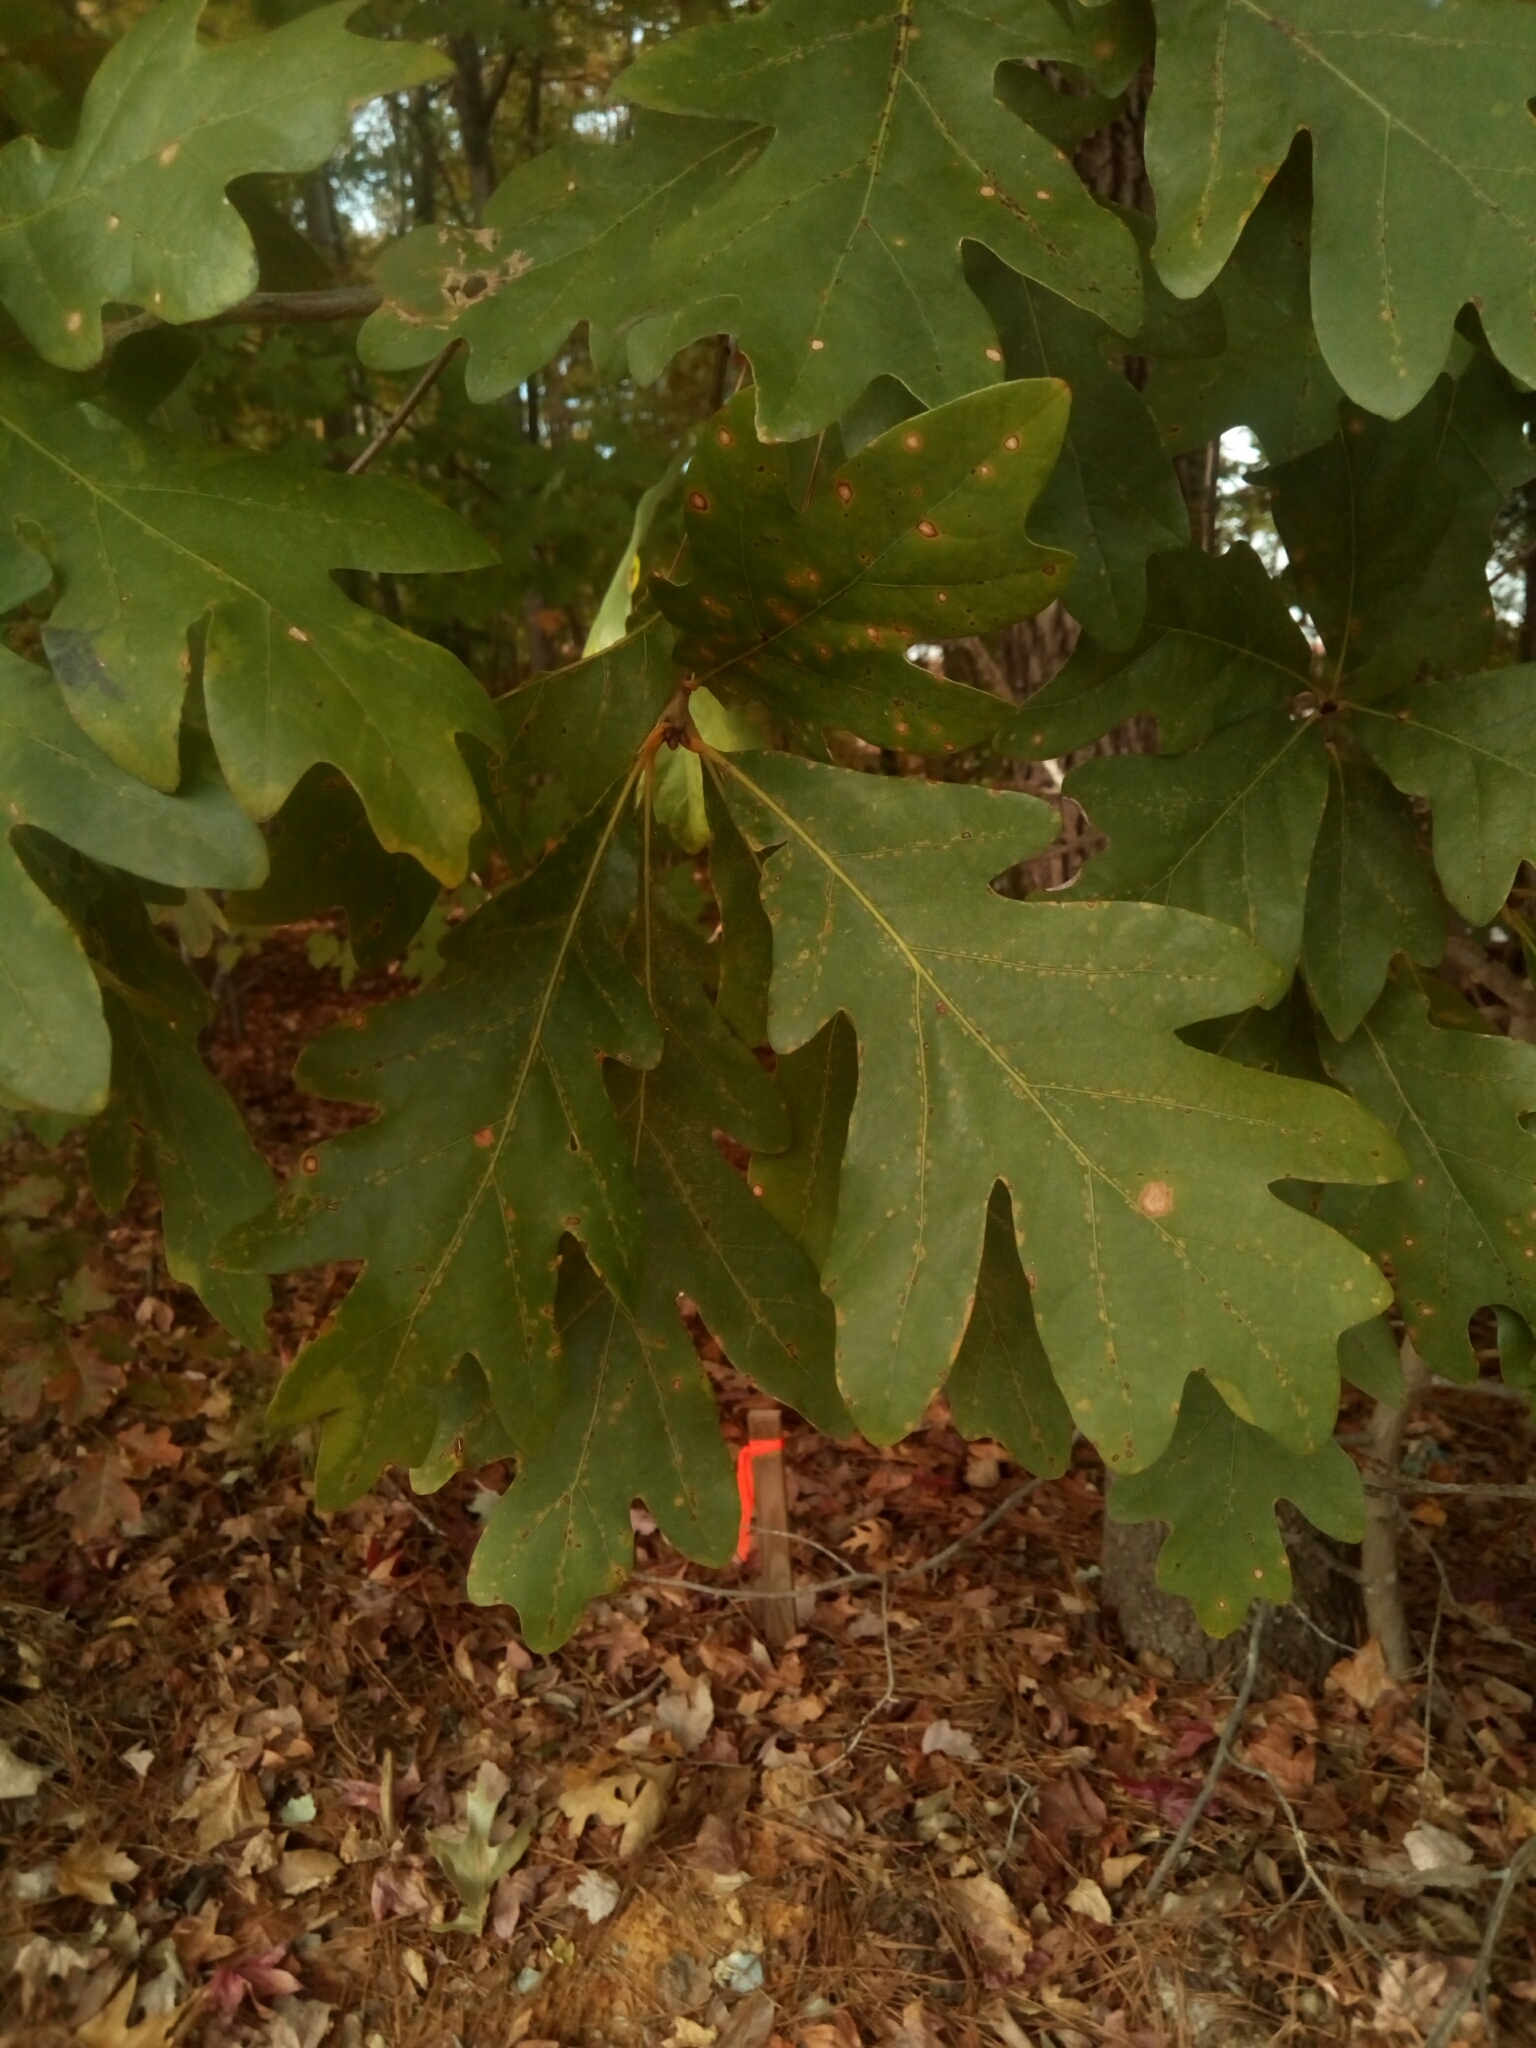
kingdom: Plantae
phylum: Tracheophyta
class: Magnoliopsida
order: Fagales
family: Fagaceae
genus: Quercus
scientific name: Quercus alba
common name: White oak
